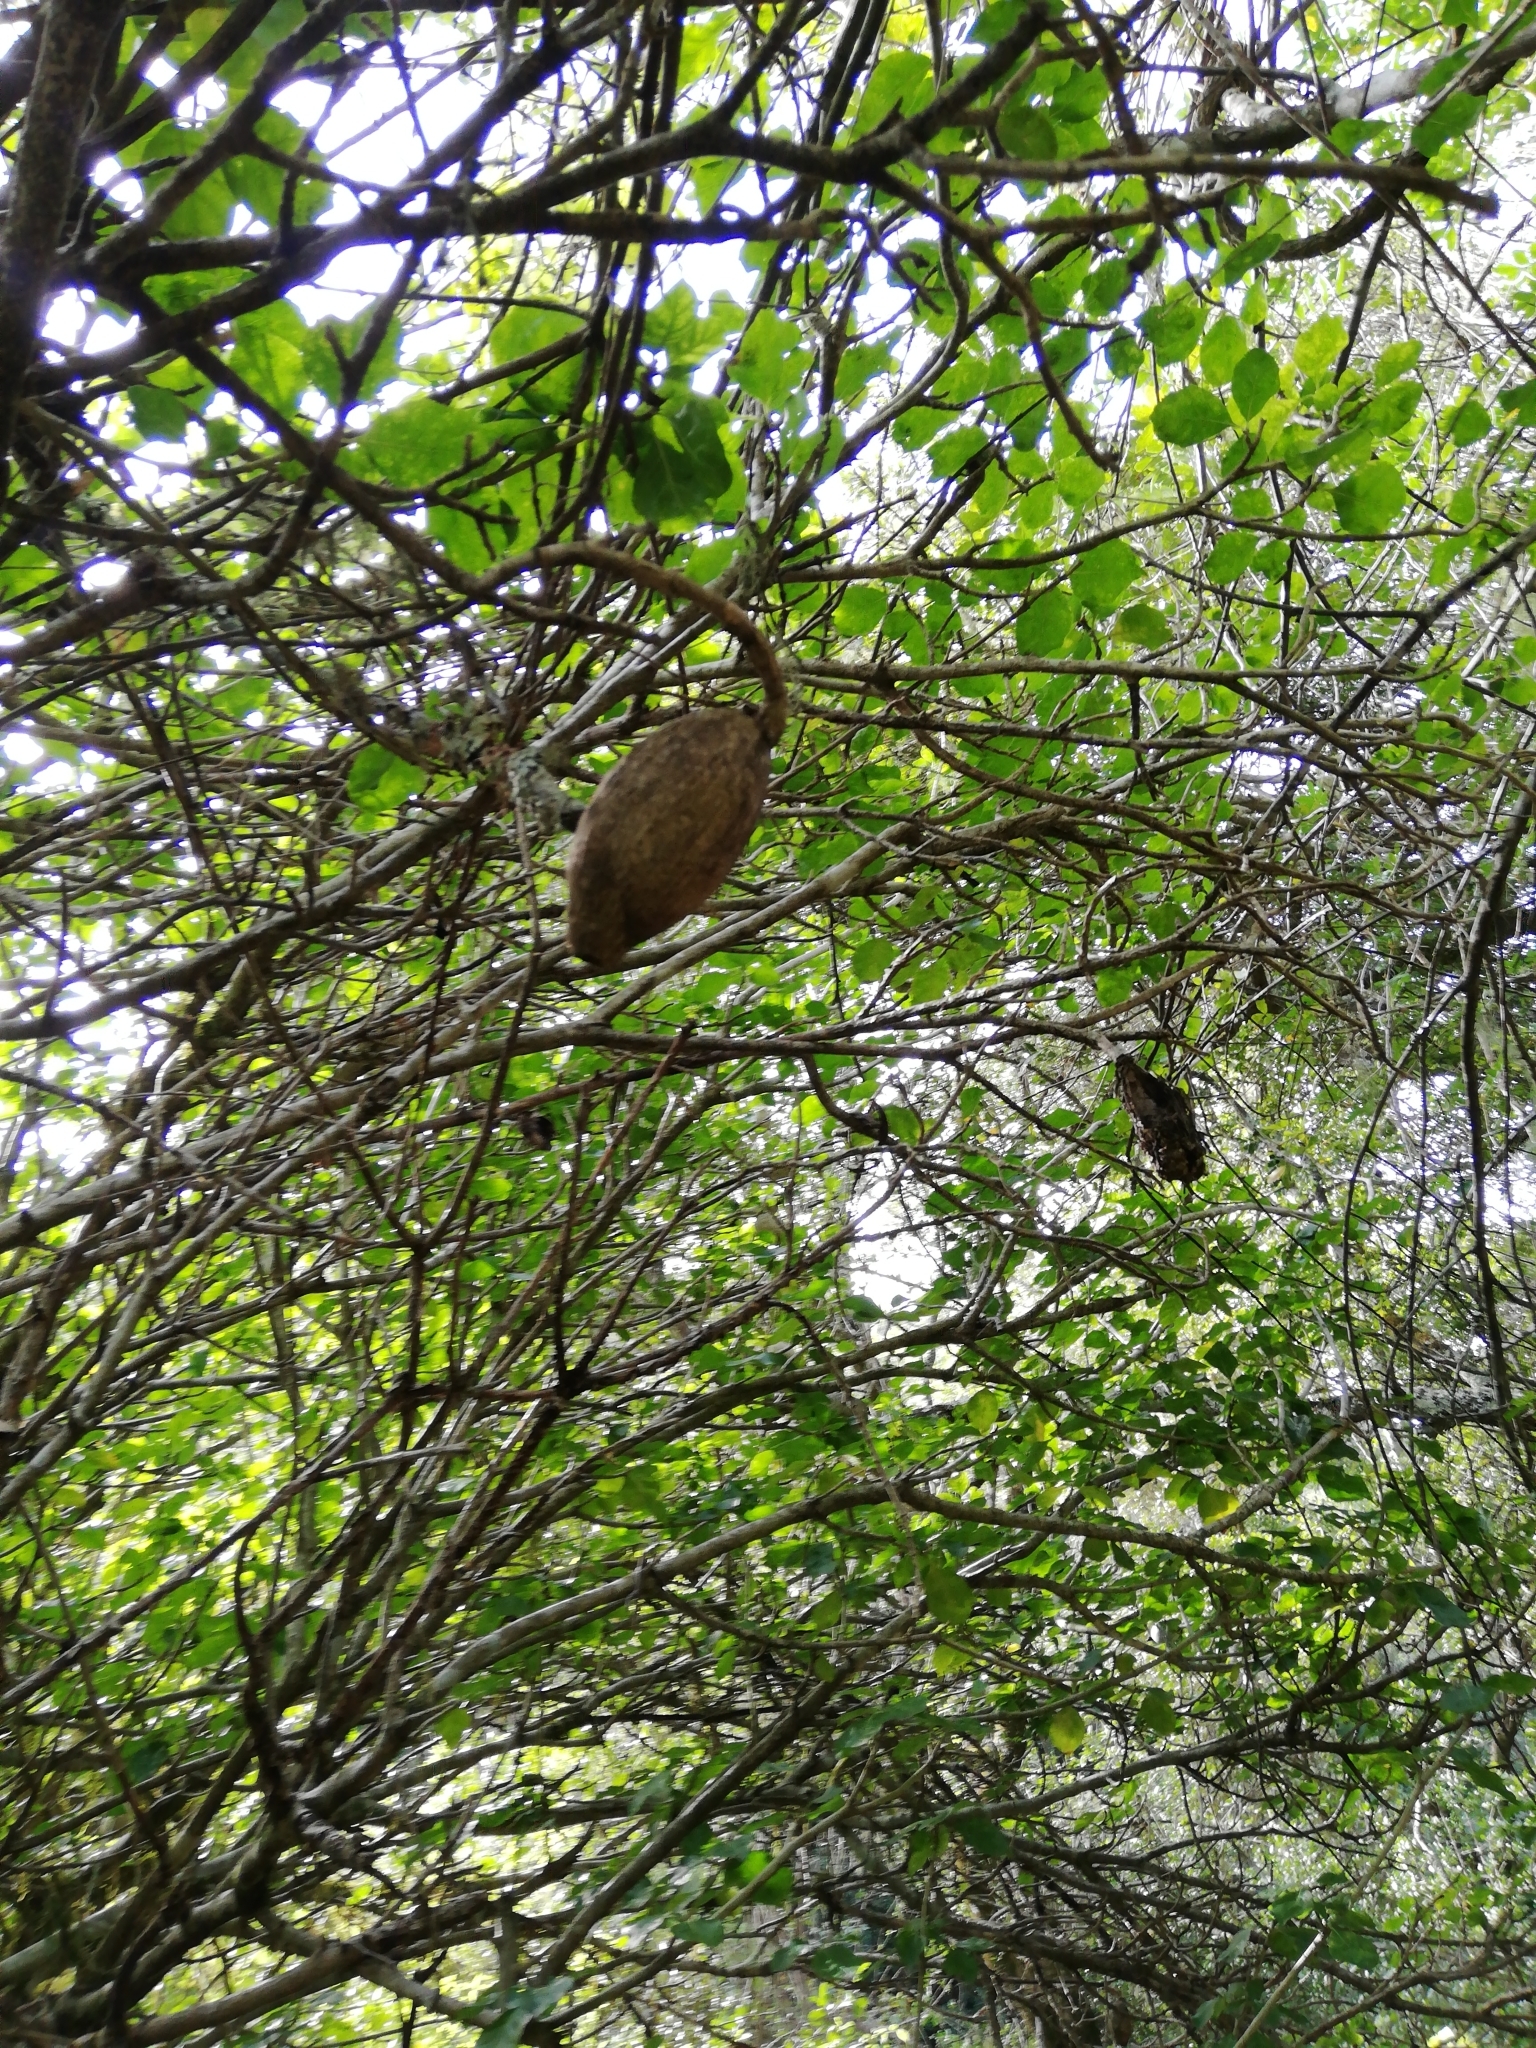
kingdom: Plantae
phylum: Tracheophyta
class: Magnoliopsida
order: Gentianales
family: Rubiaceae
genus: Gardenia
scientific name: Gardenia thunbergia
